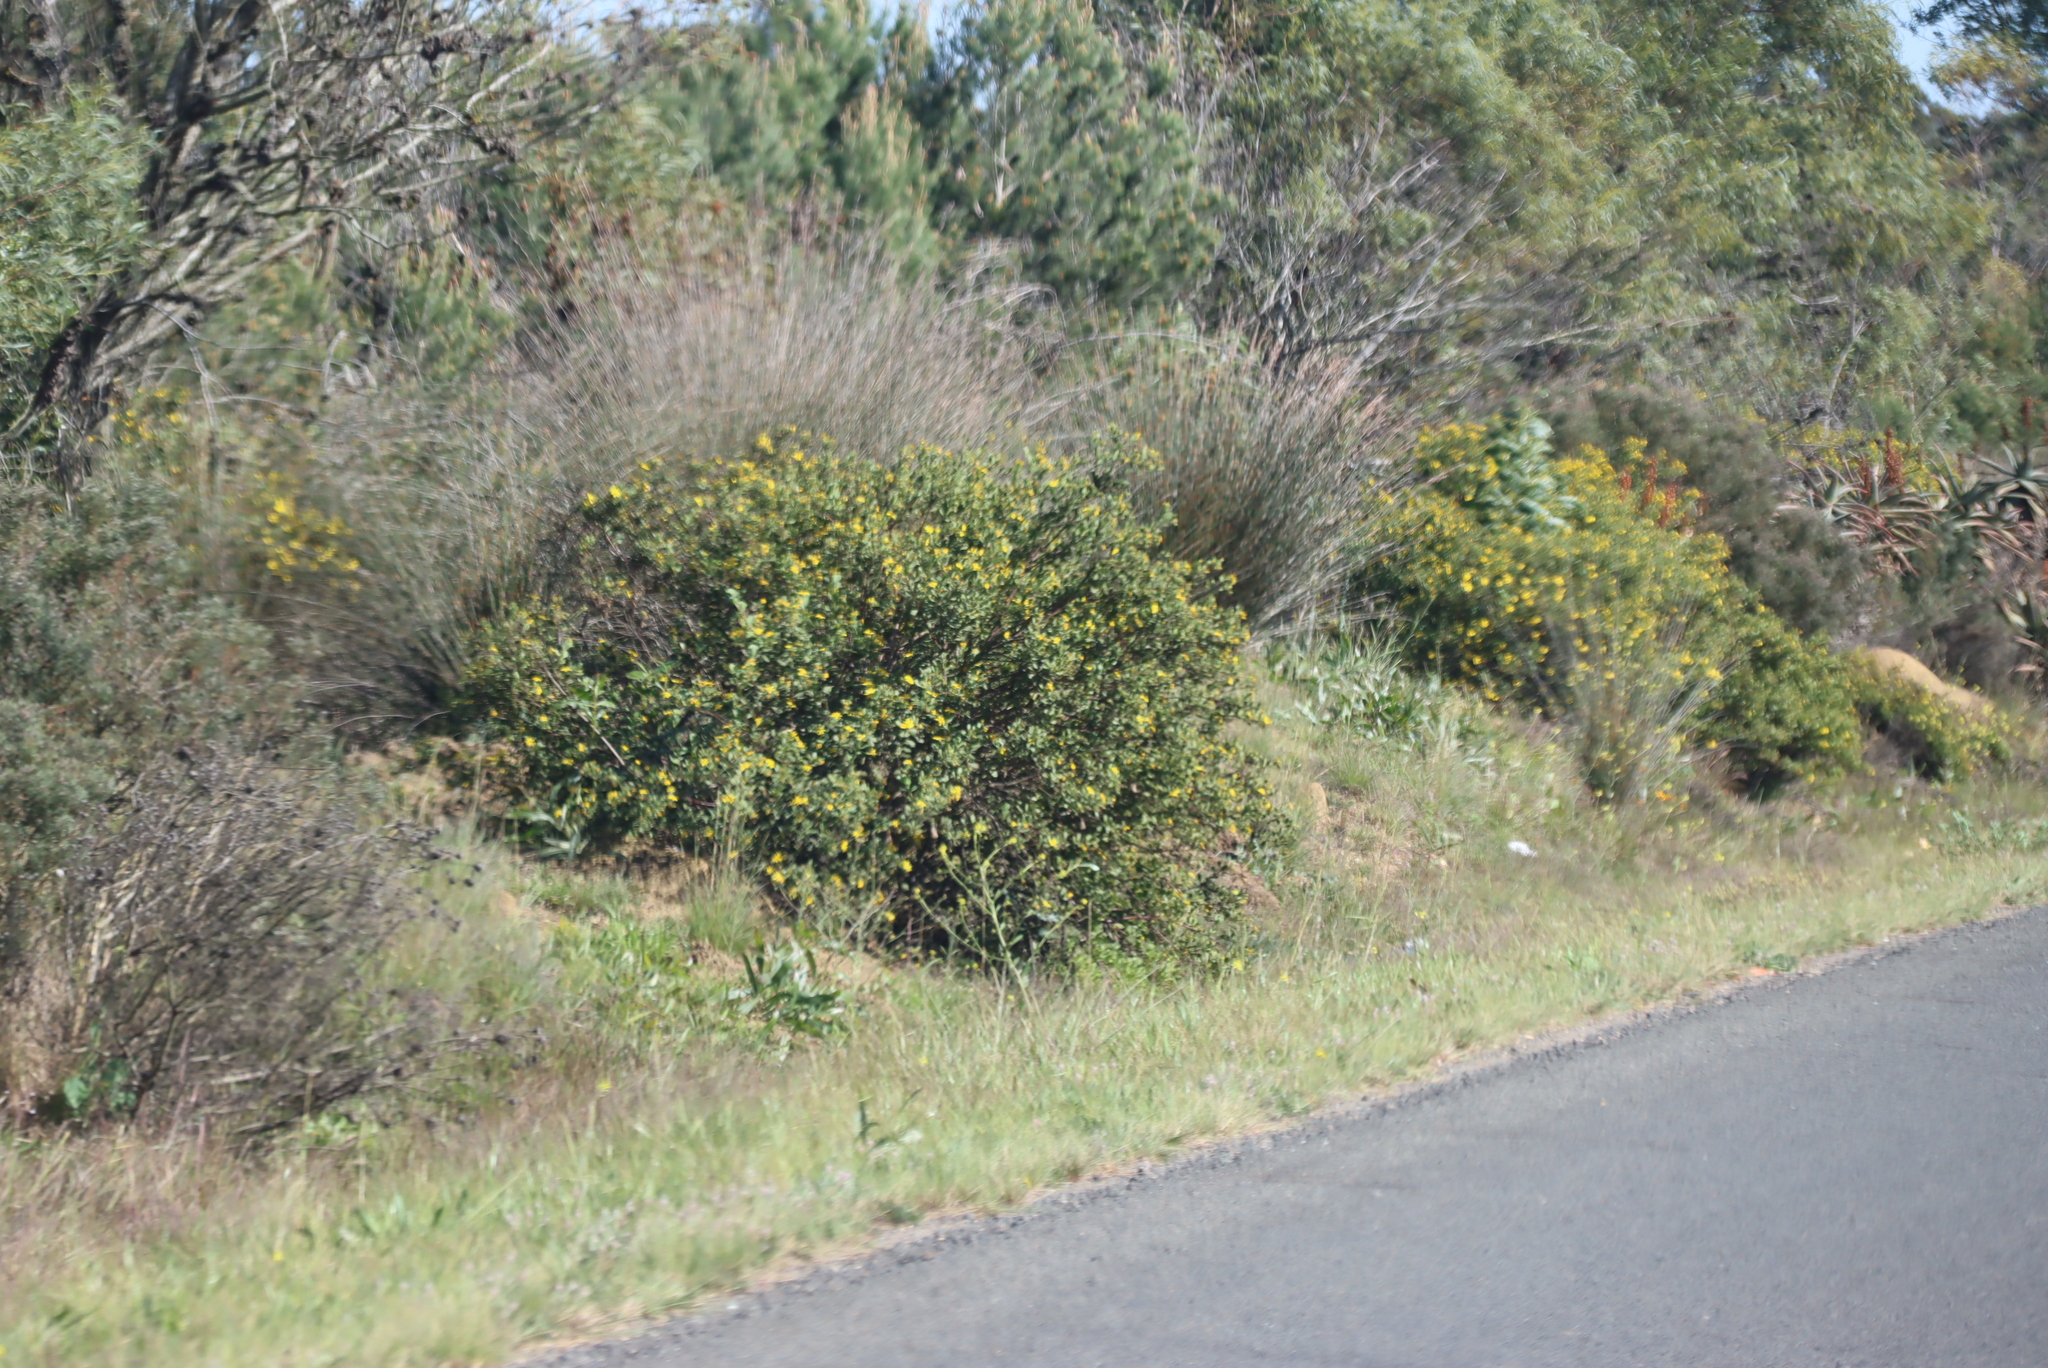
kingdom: Plantae
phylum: Tracheophyta
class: Magnoliopsida
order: Asterales
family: Asteraceae
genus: Osteospermum
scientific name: Osteospermum moniliferum
